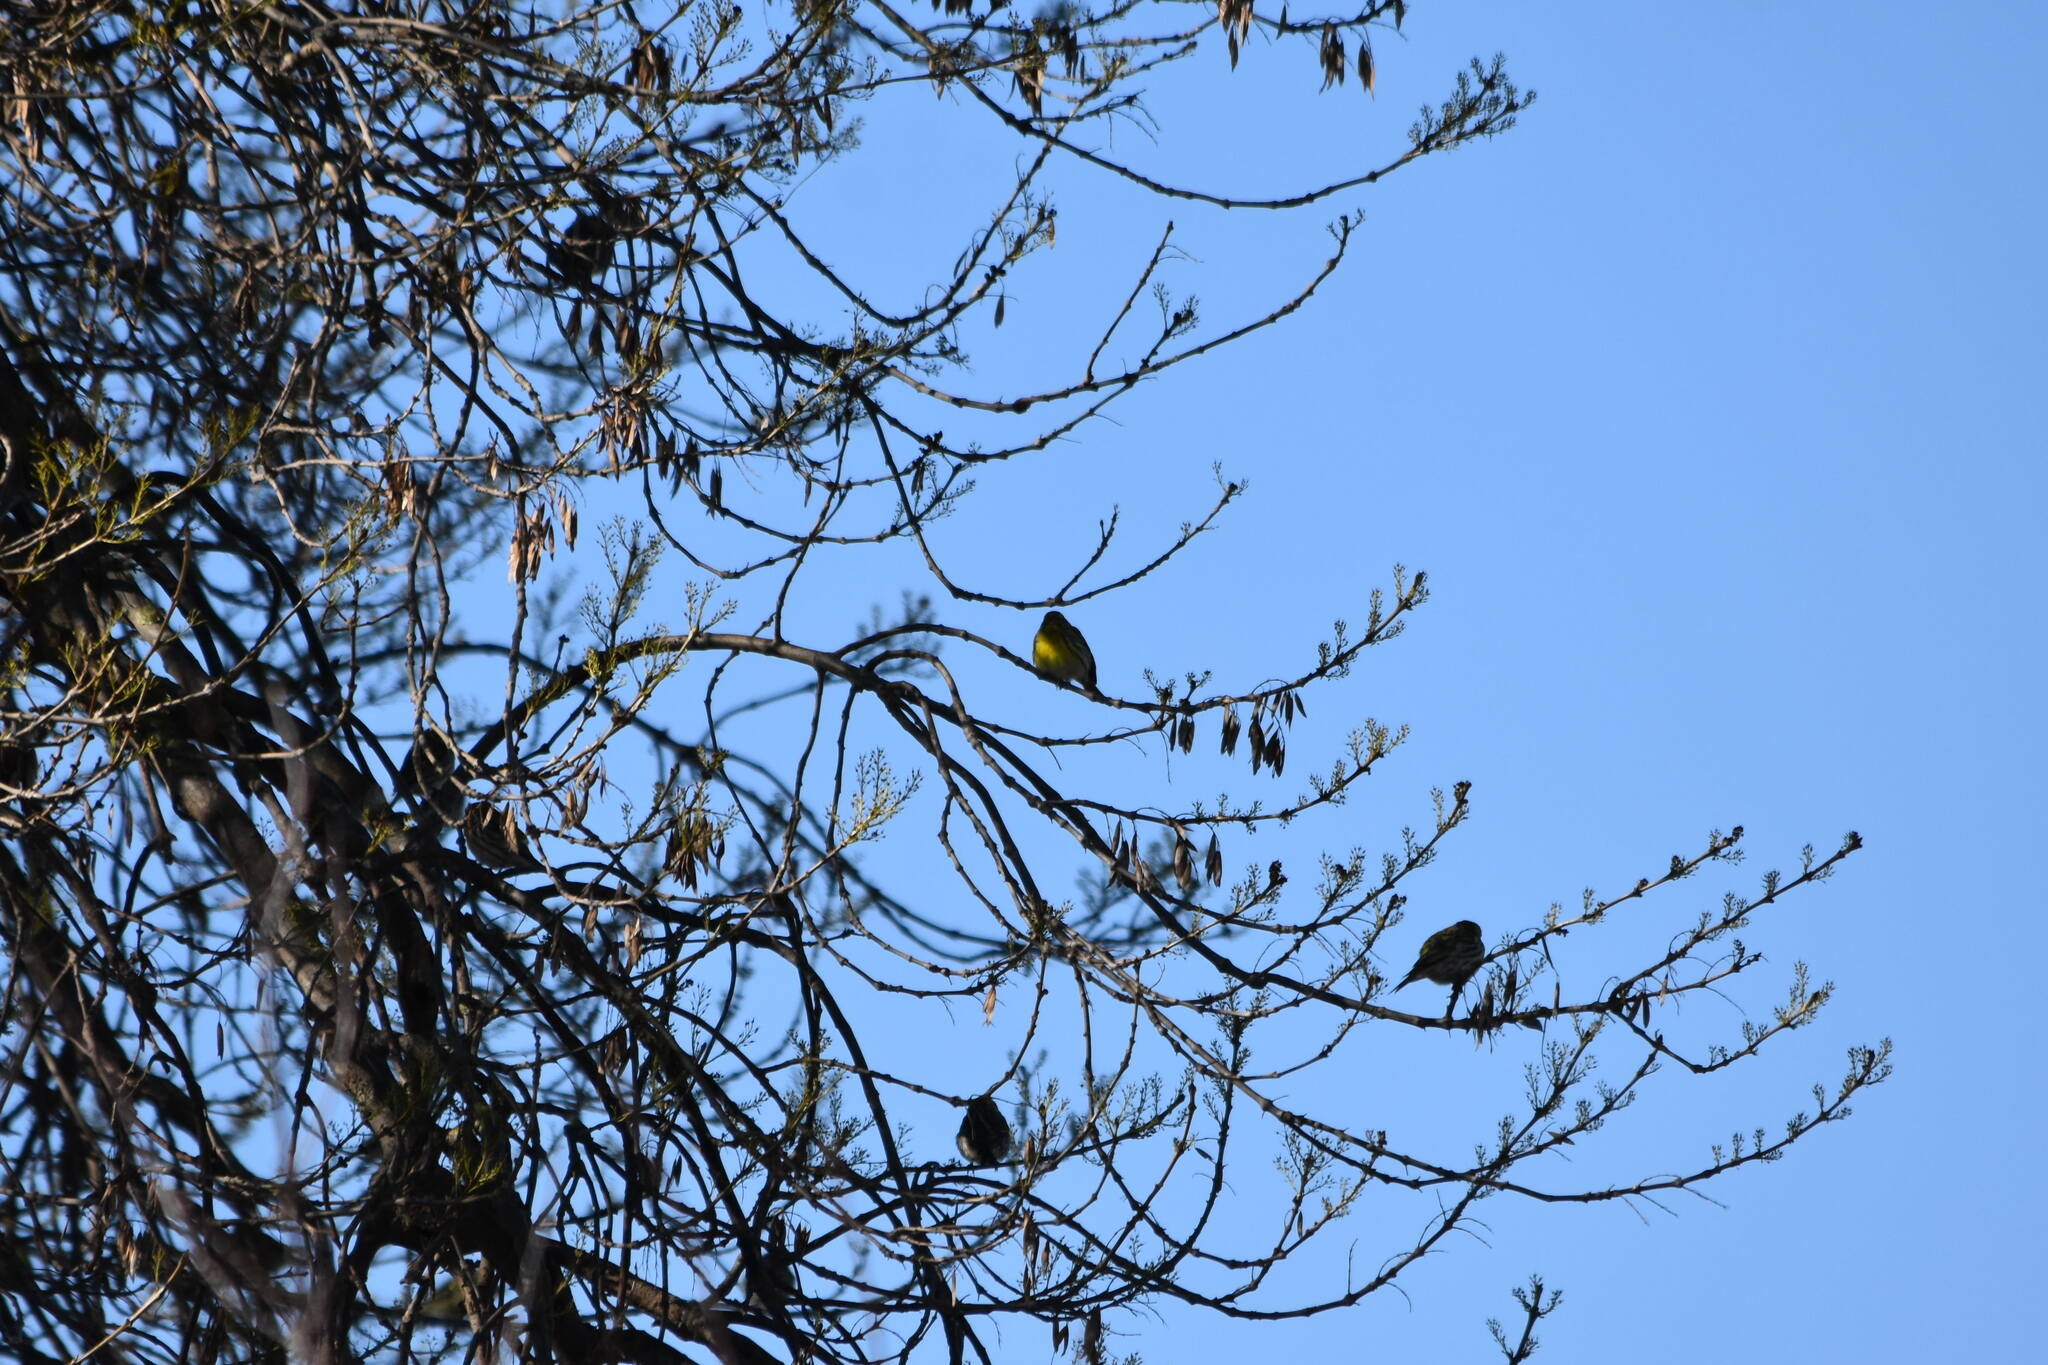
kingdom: Animalia
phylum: Chordata
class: Aves
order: Passeriformes
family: Fringillidae
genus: Serinus
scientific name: Serinus serinus
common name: European serin
